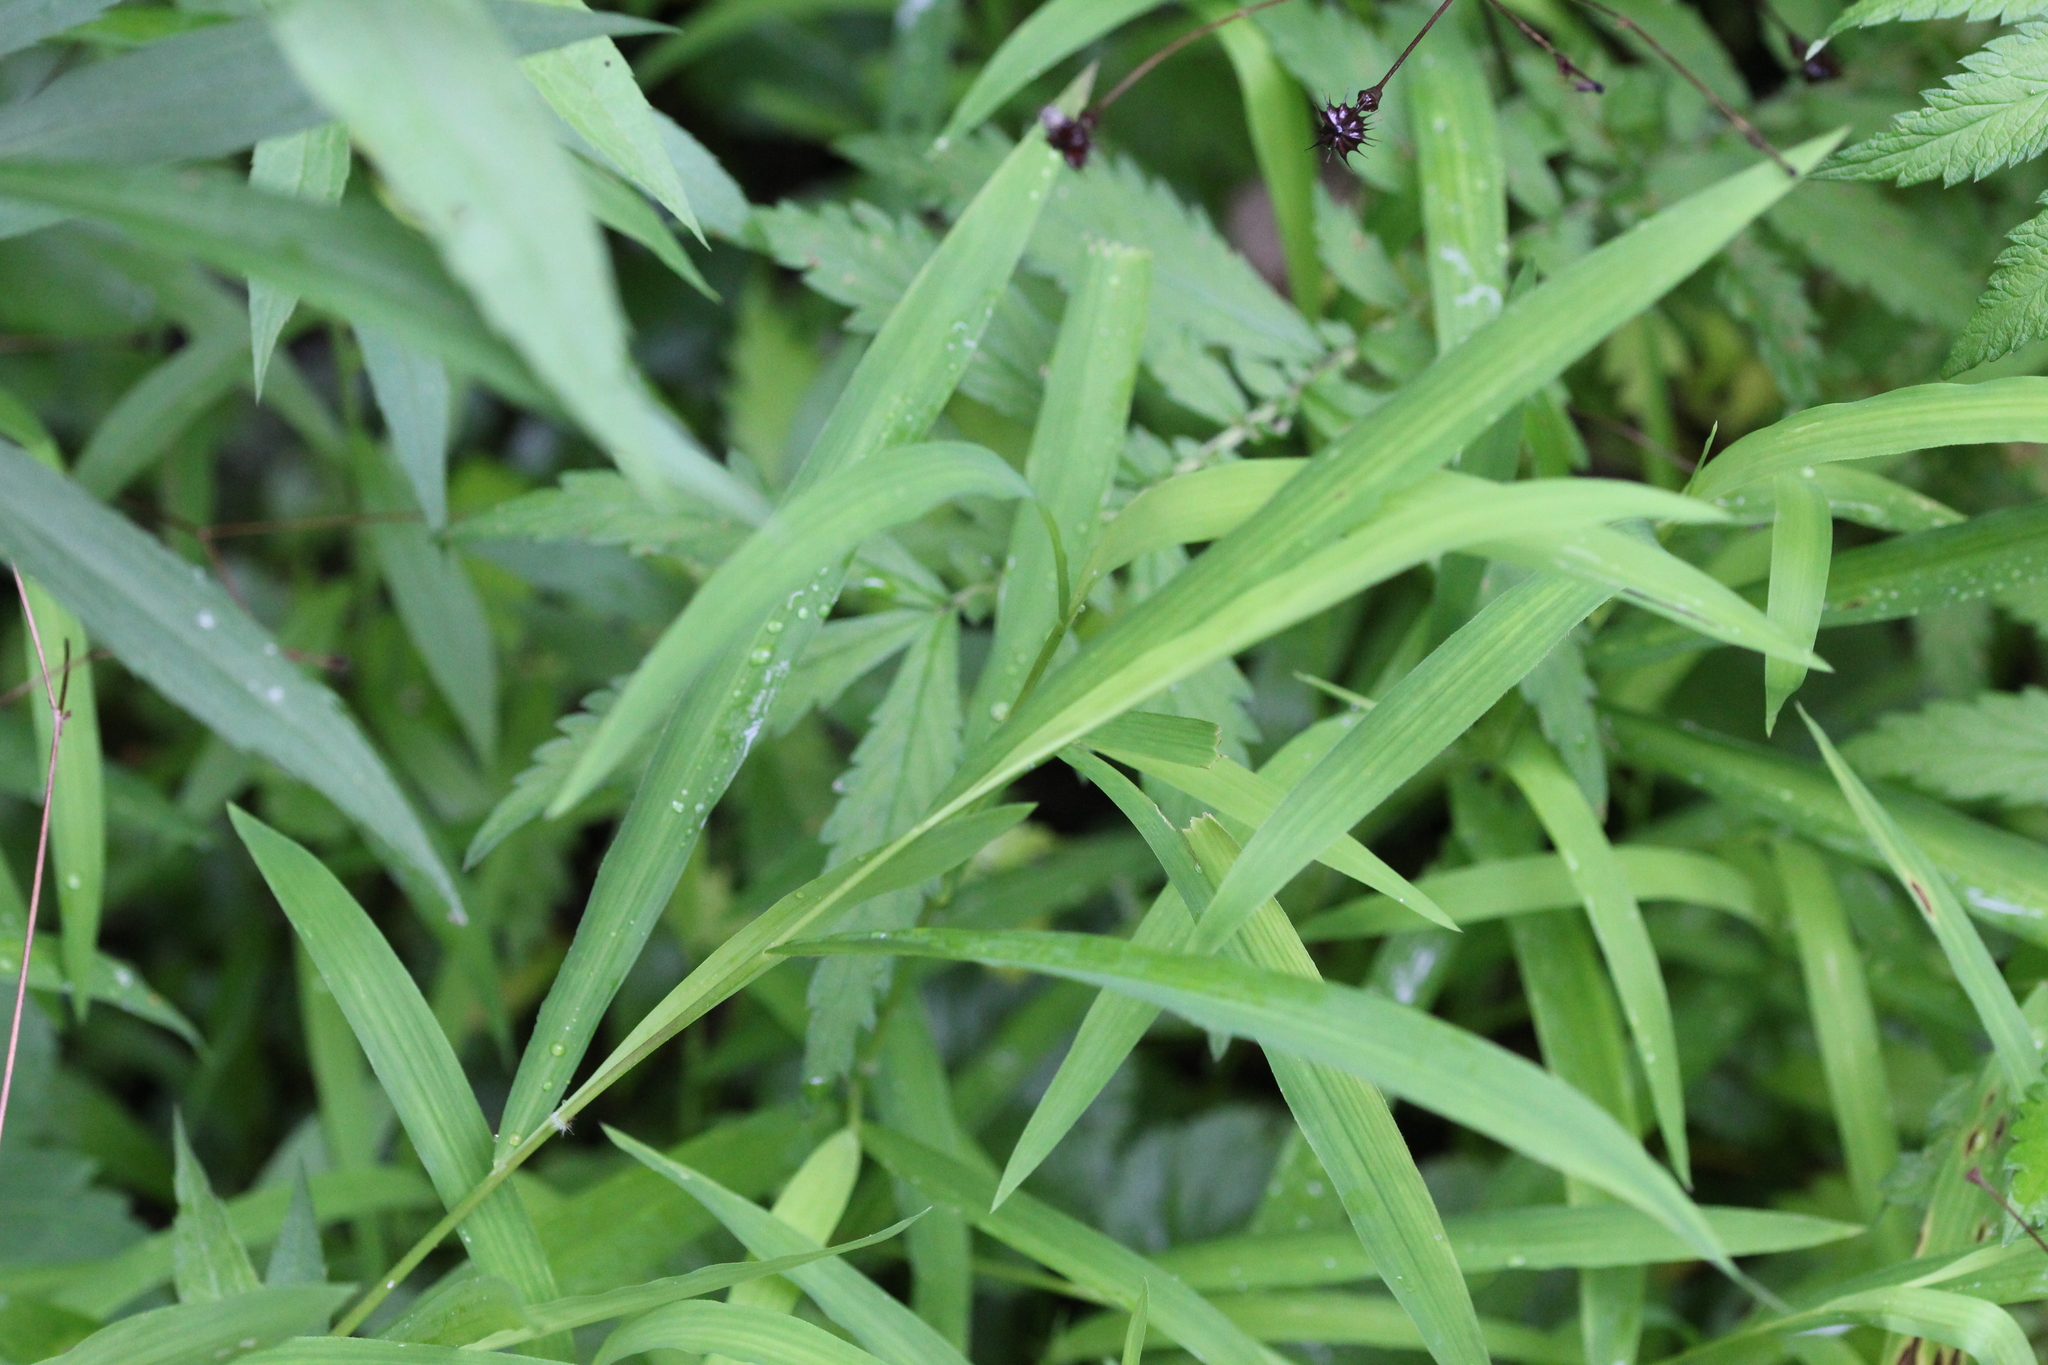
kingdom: Plantae
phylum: Tracheophyta
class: Liliopsida
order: Poales
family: Poaceae
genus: Leersia
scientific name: Leersia virginica
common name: White cutgrass
